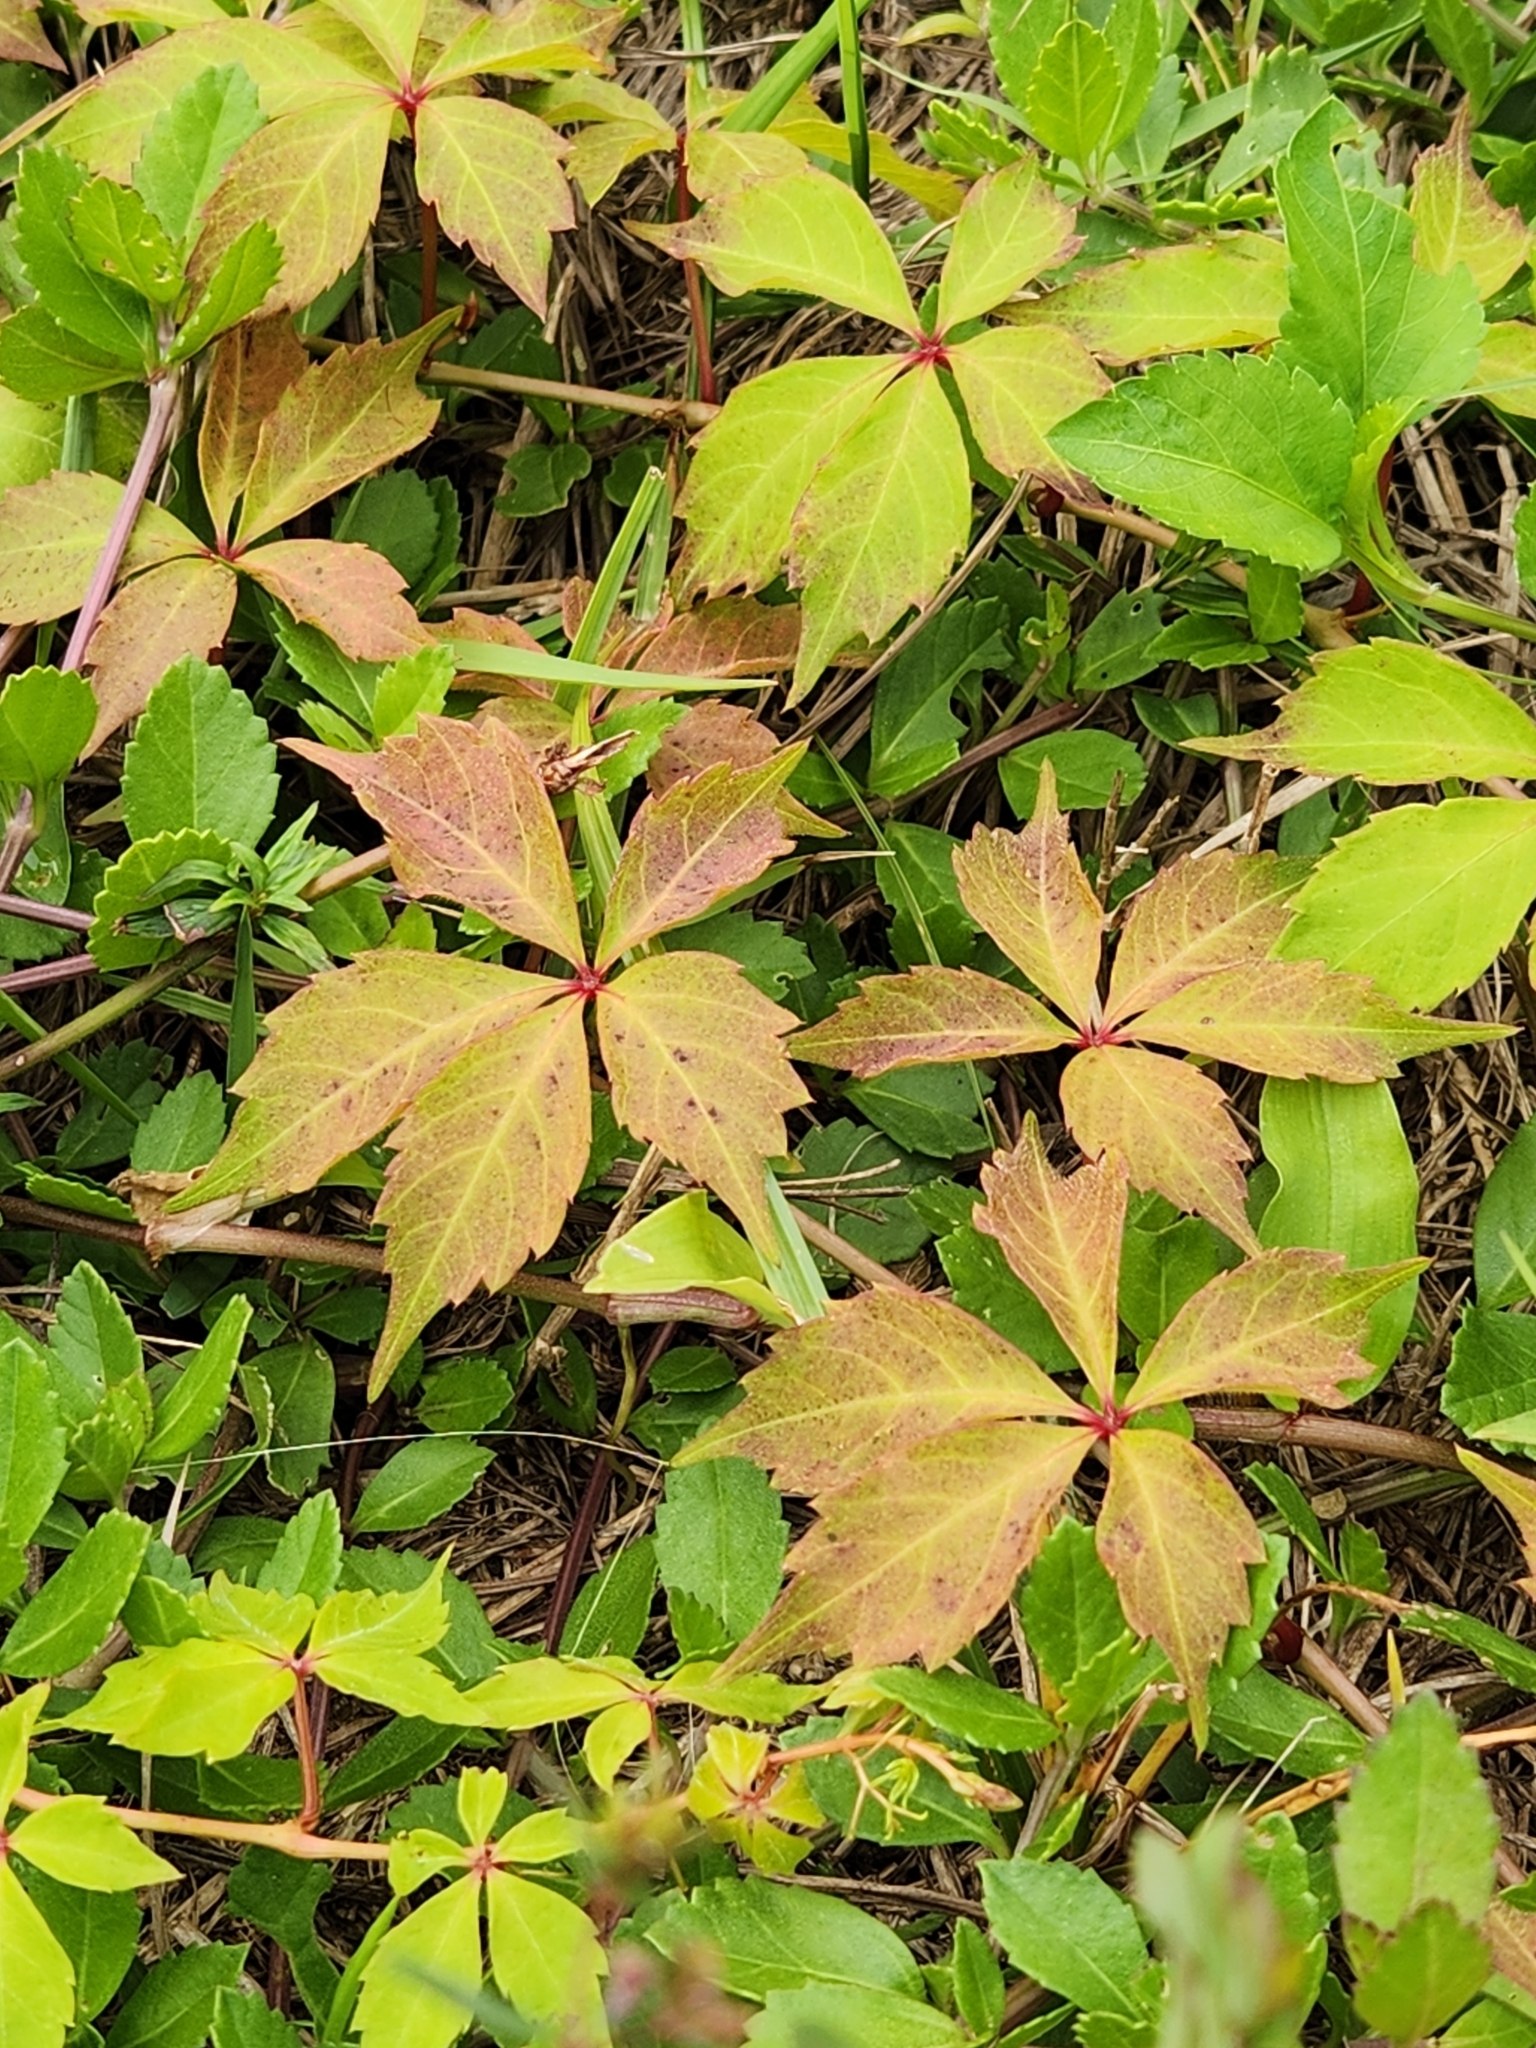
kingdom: Plantae
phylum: Tracheophyta
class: Magnoliopsida
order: Vitales
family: Vitaceae
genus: Parthenocissus
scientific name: Parthenocissus quinquefolia
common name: Virginia-creeper
